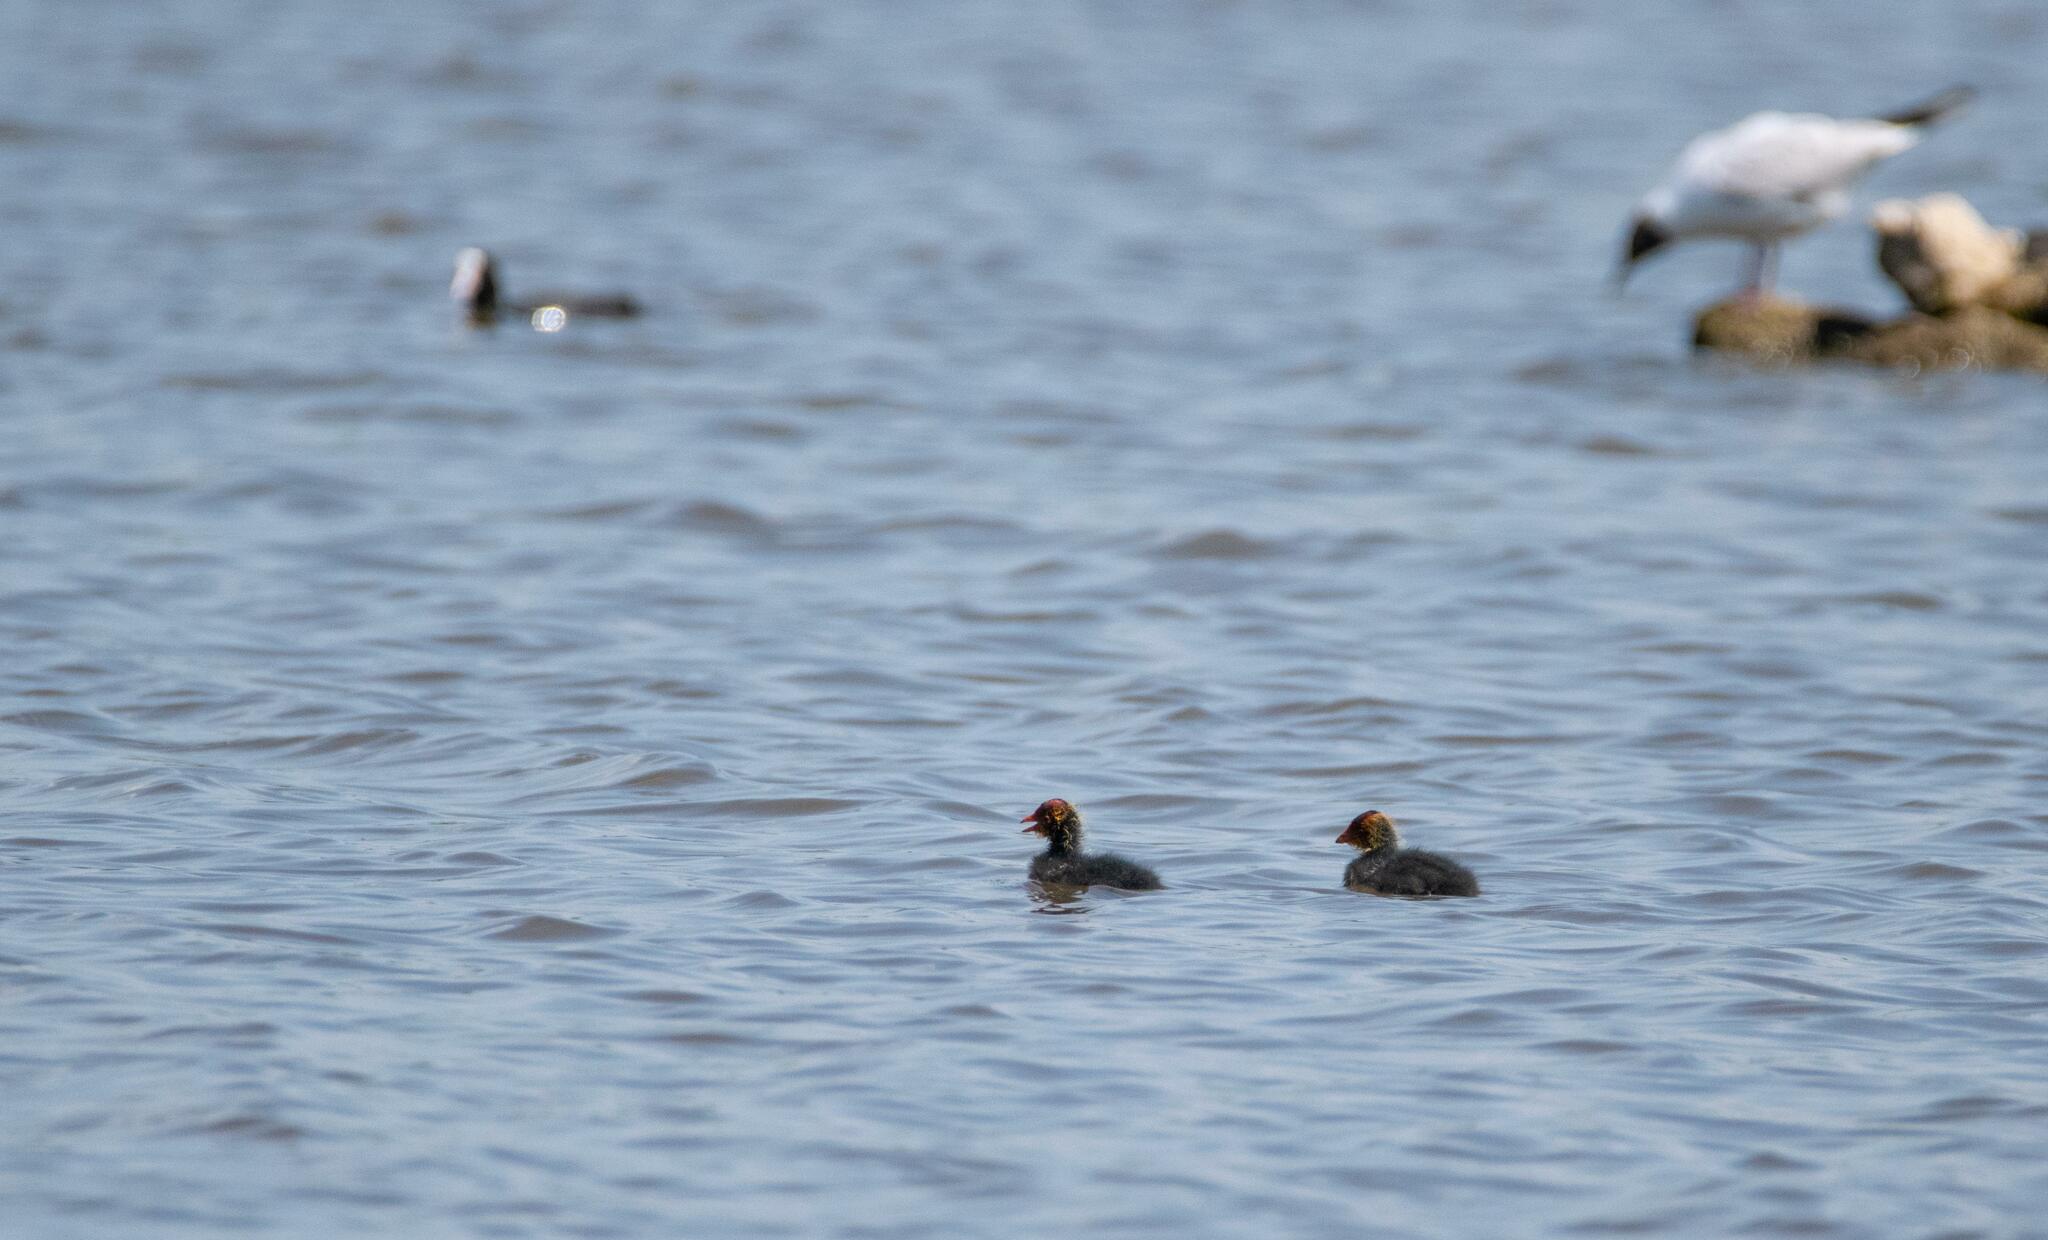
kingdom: Animalia
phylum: Chordata
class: Aves
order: Gruiformes
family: Rallidae
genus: Fulica
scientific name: Fulica atra
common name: Eurasian coot
